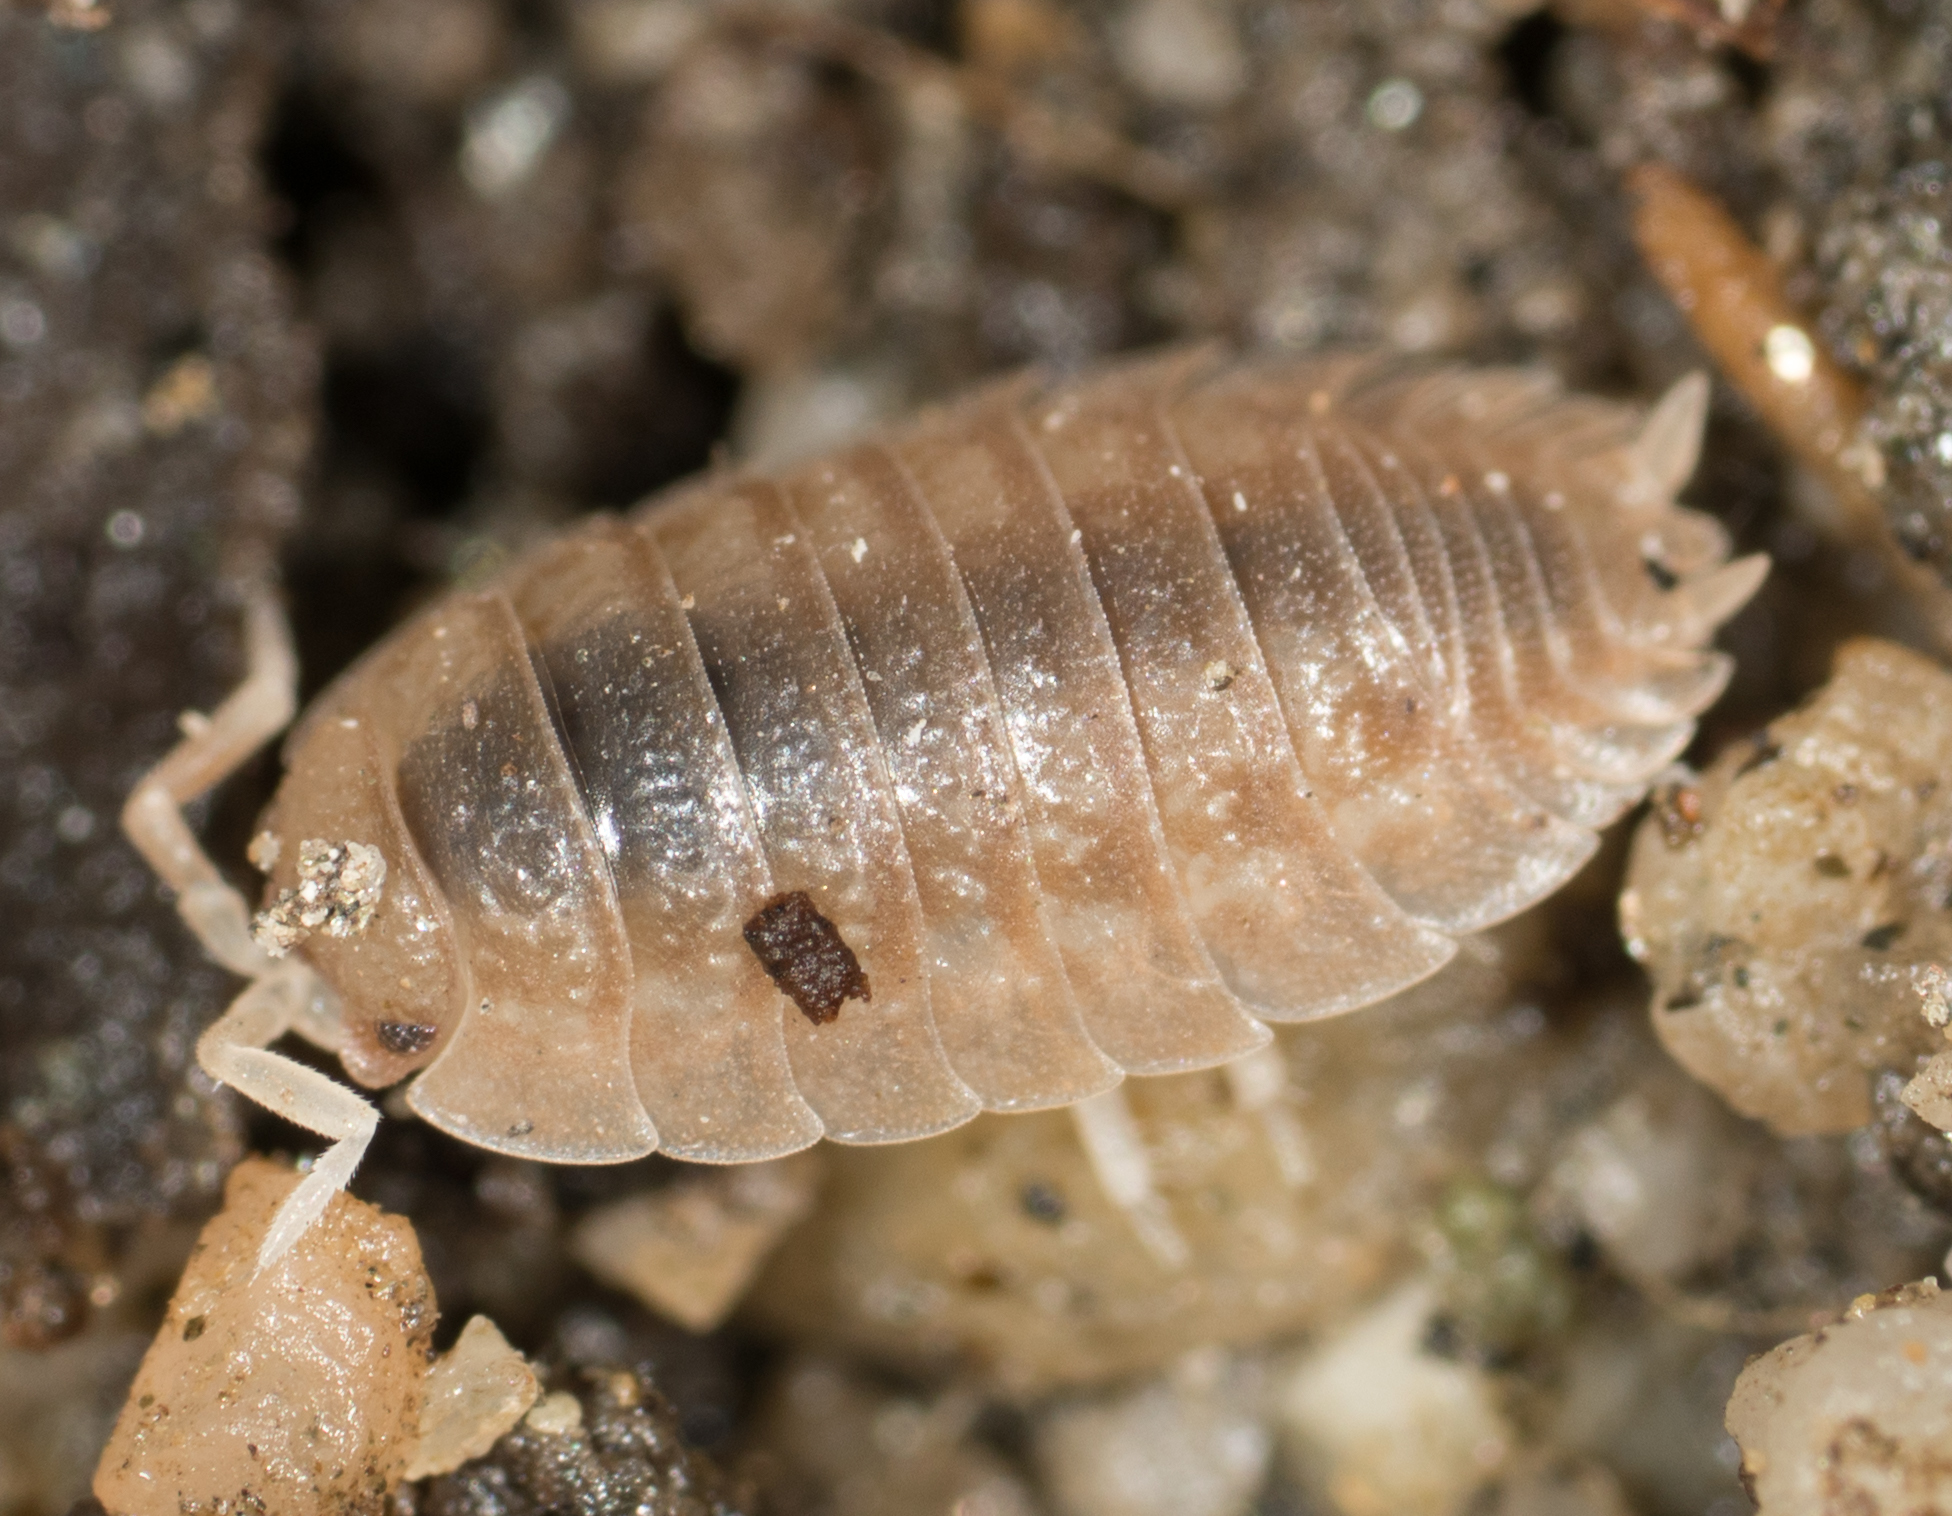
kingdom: Animalia
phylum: Arthropoda
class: Malacostraca
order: Isopoda
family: Porcellionidae
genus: Porcellio
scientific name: Porcellio dilatatus
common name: Isopod
